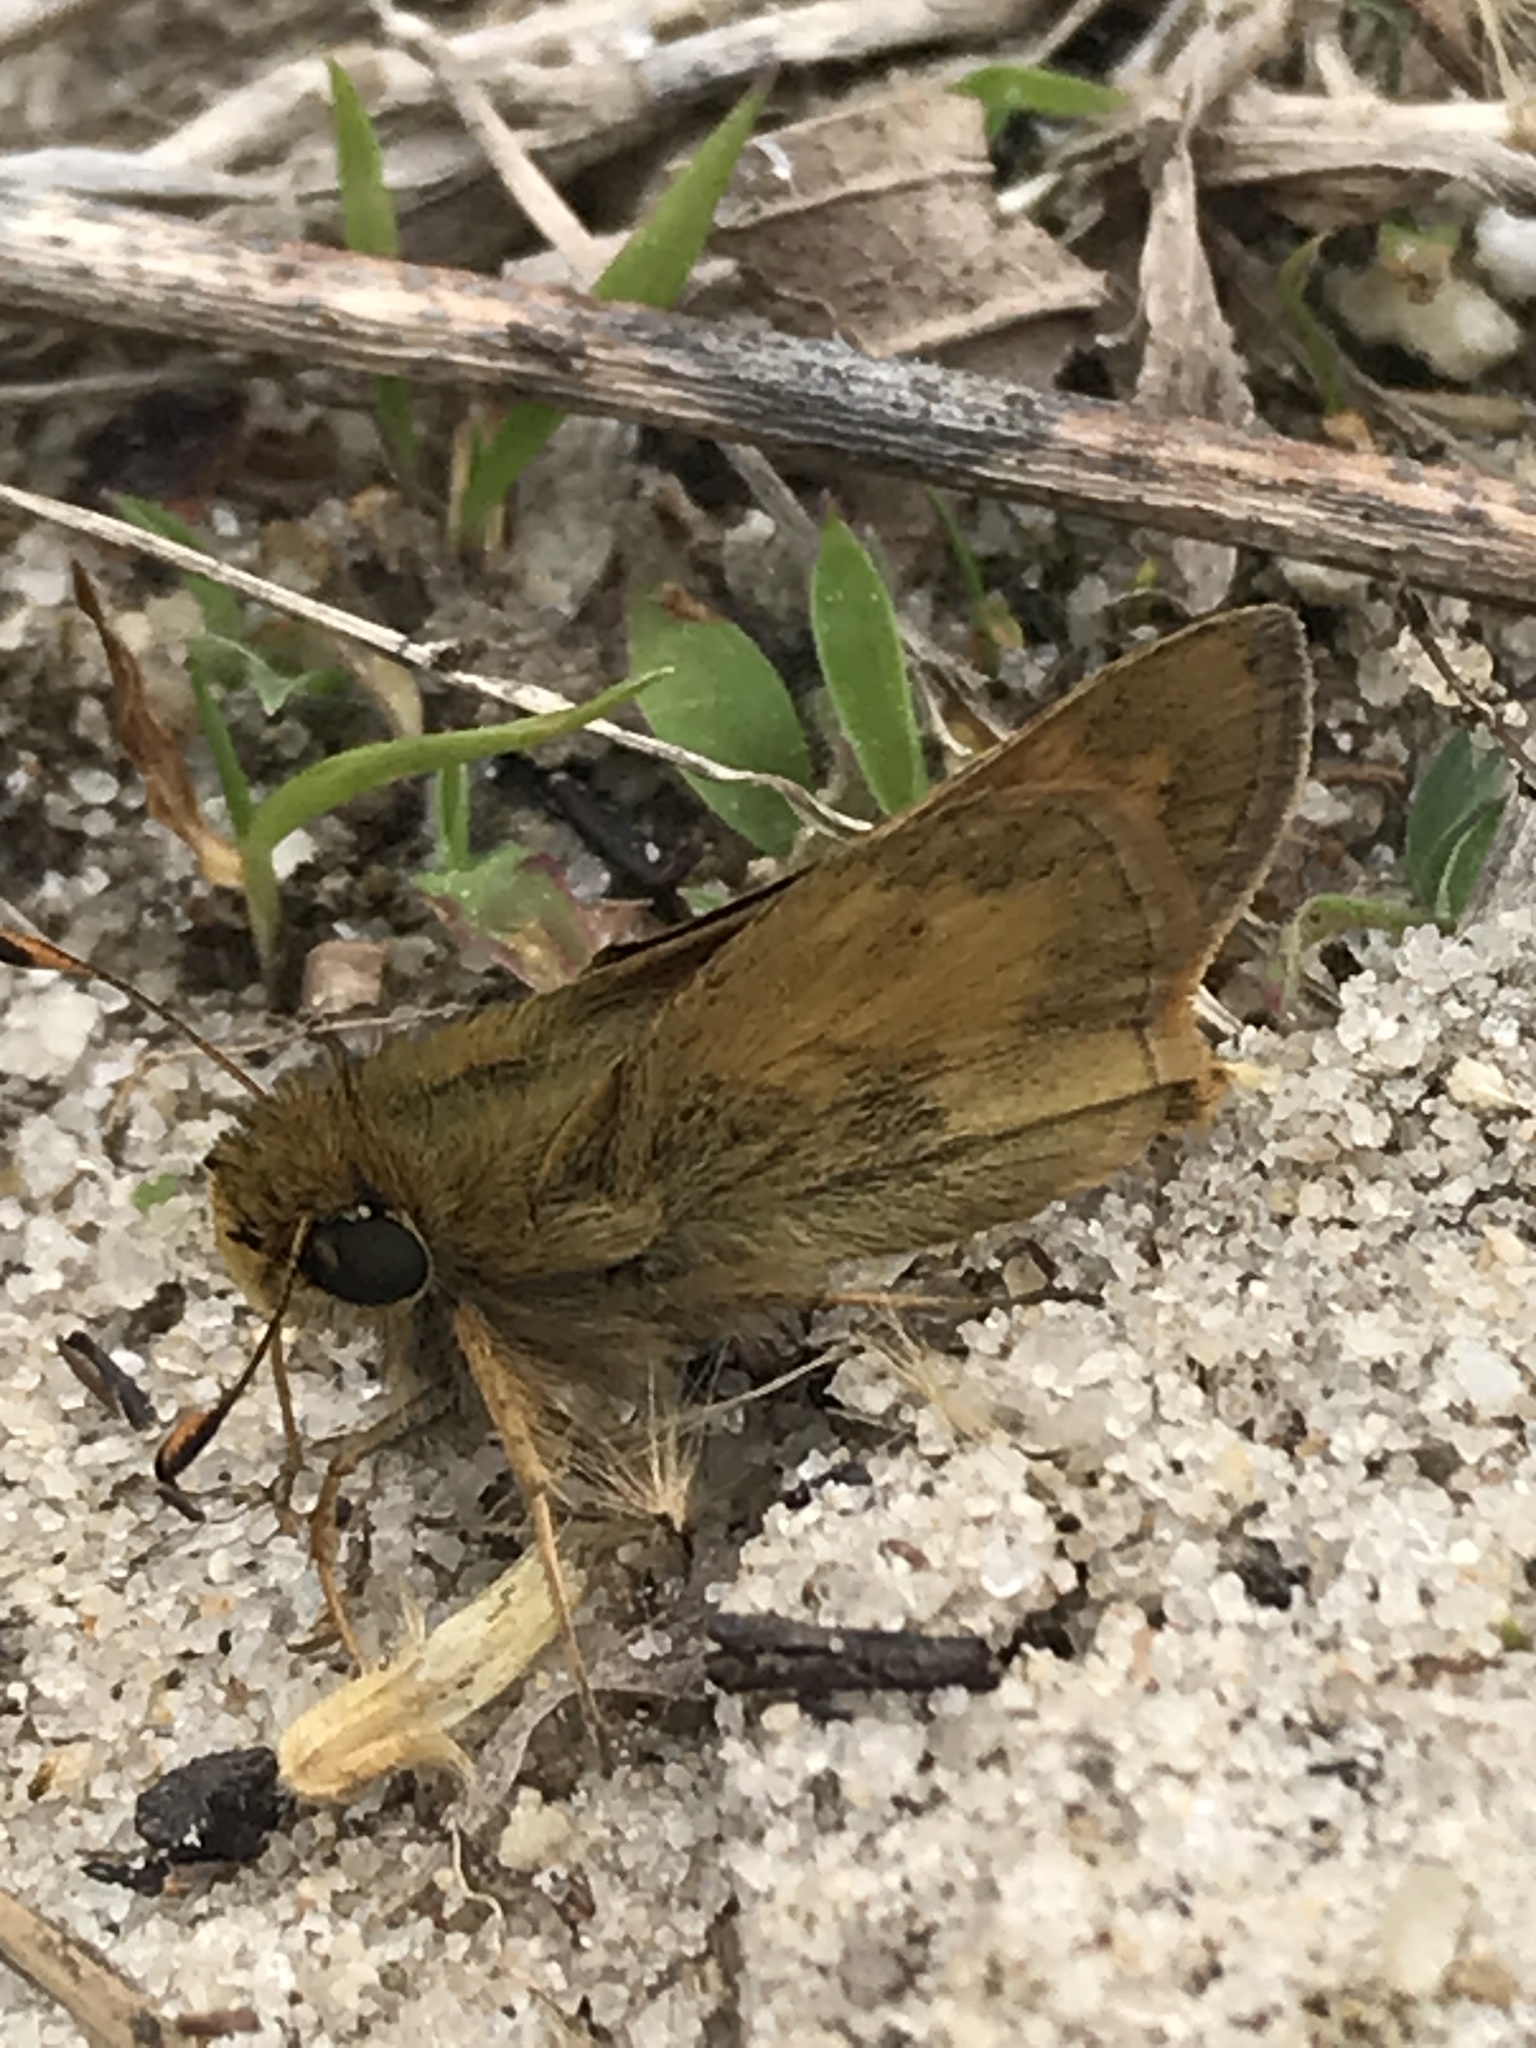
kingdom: Animalia
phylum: Arthropoda
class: Insecta
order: Lepidoptera
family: Hesperiidae
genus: Atalopedes
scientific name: Atalopedes
